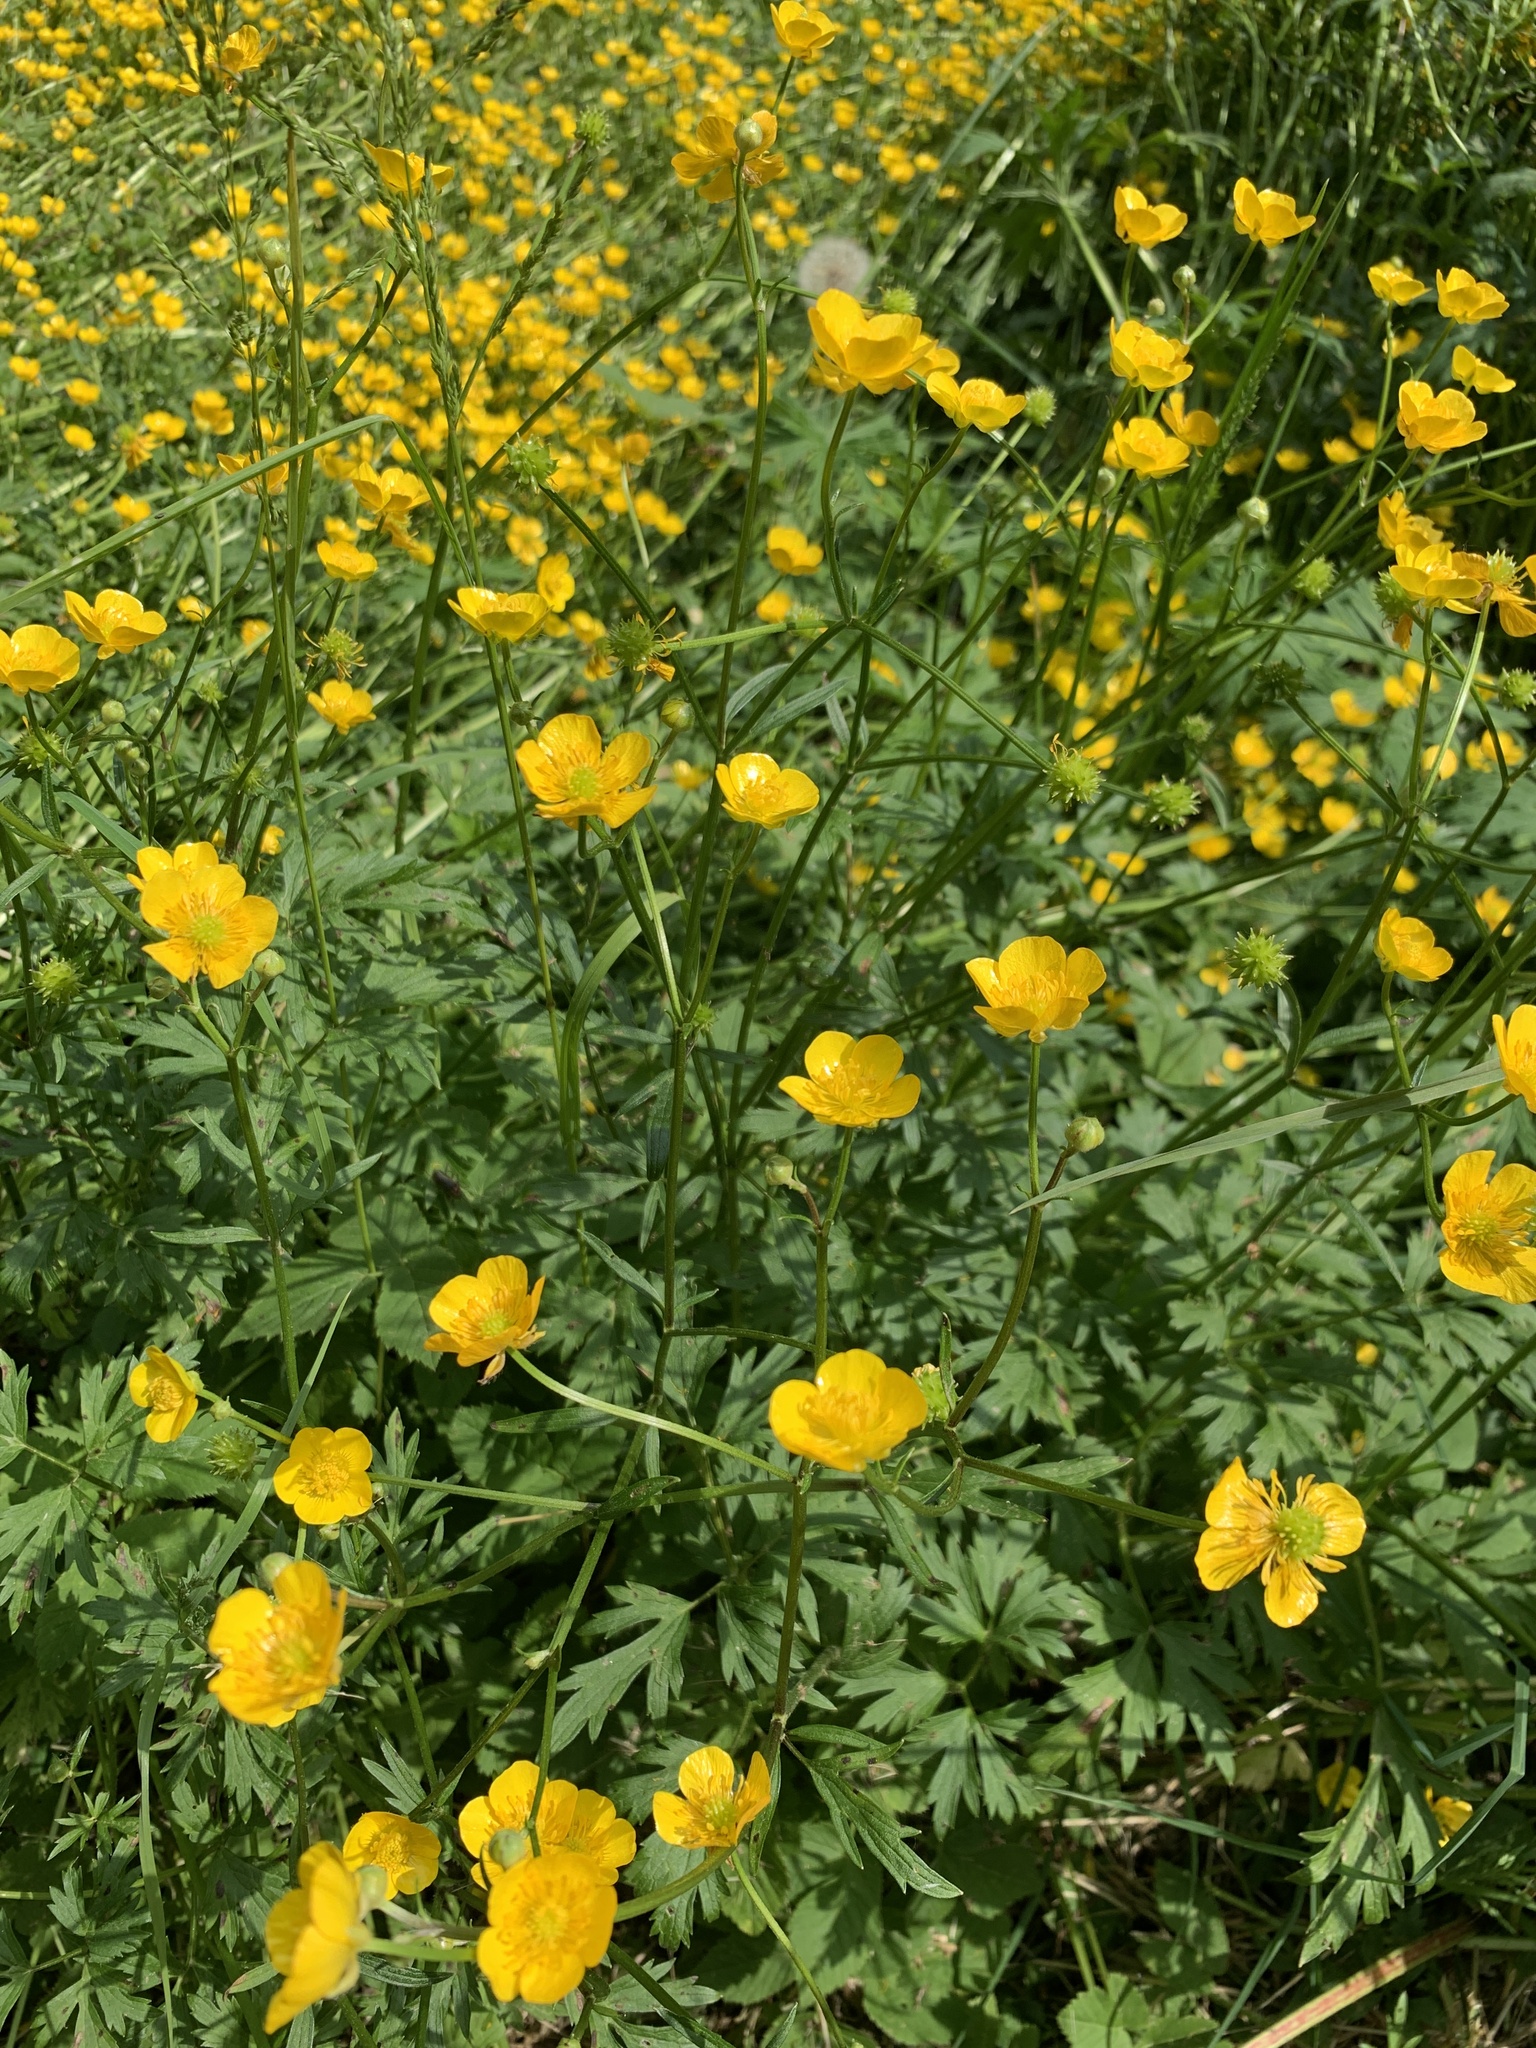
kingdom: Plantae
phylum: Tracheophyta
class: Magnoliopsida
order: Ranunculales
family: Ranunculaceae
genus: Ranunculus
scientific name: Ranunculus repens
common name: Creeping buttercup
